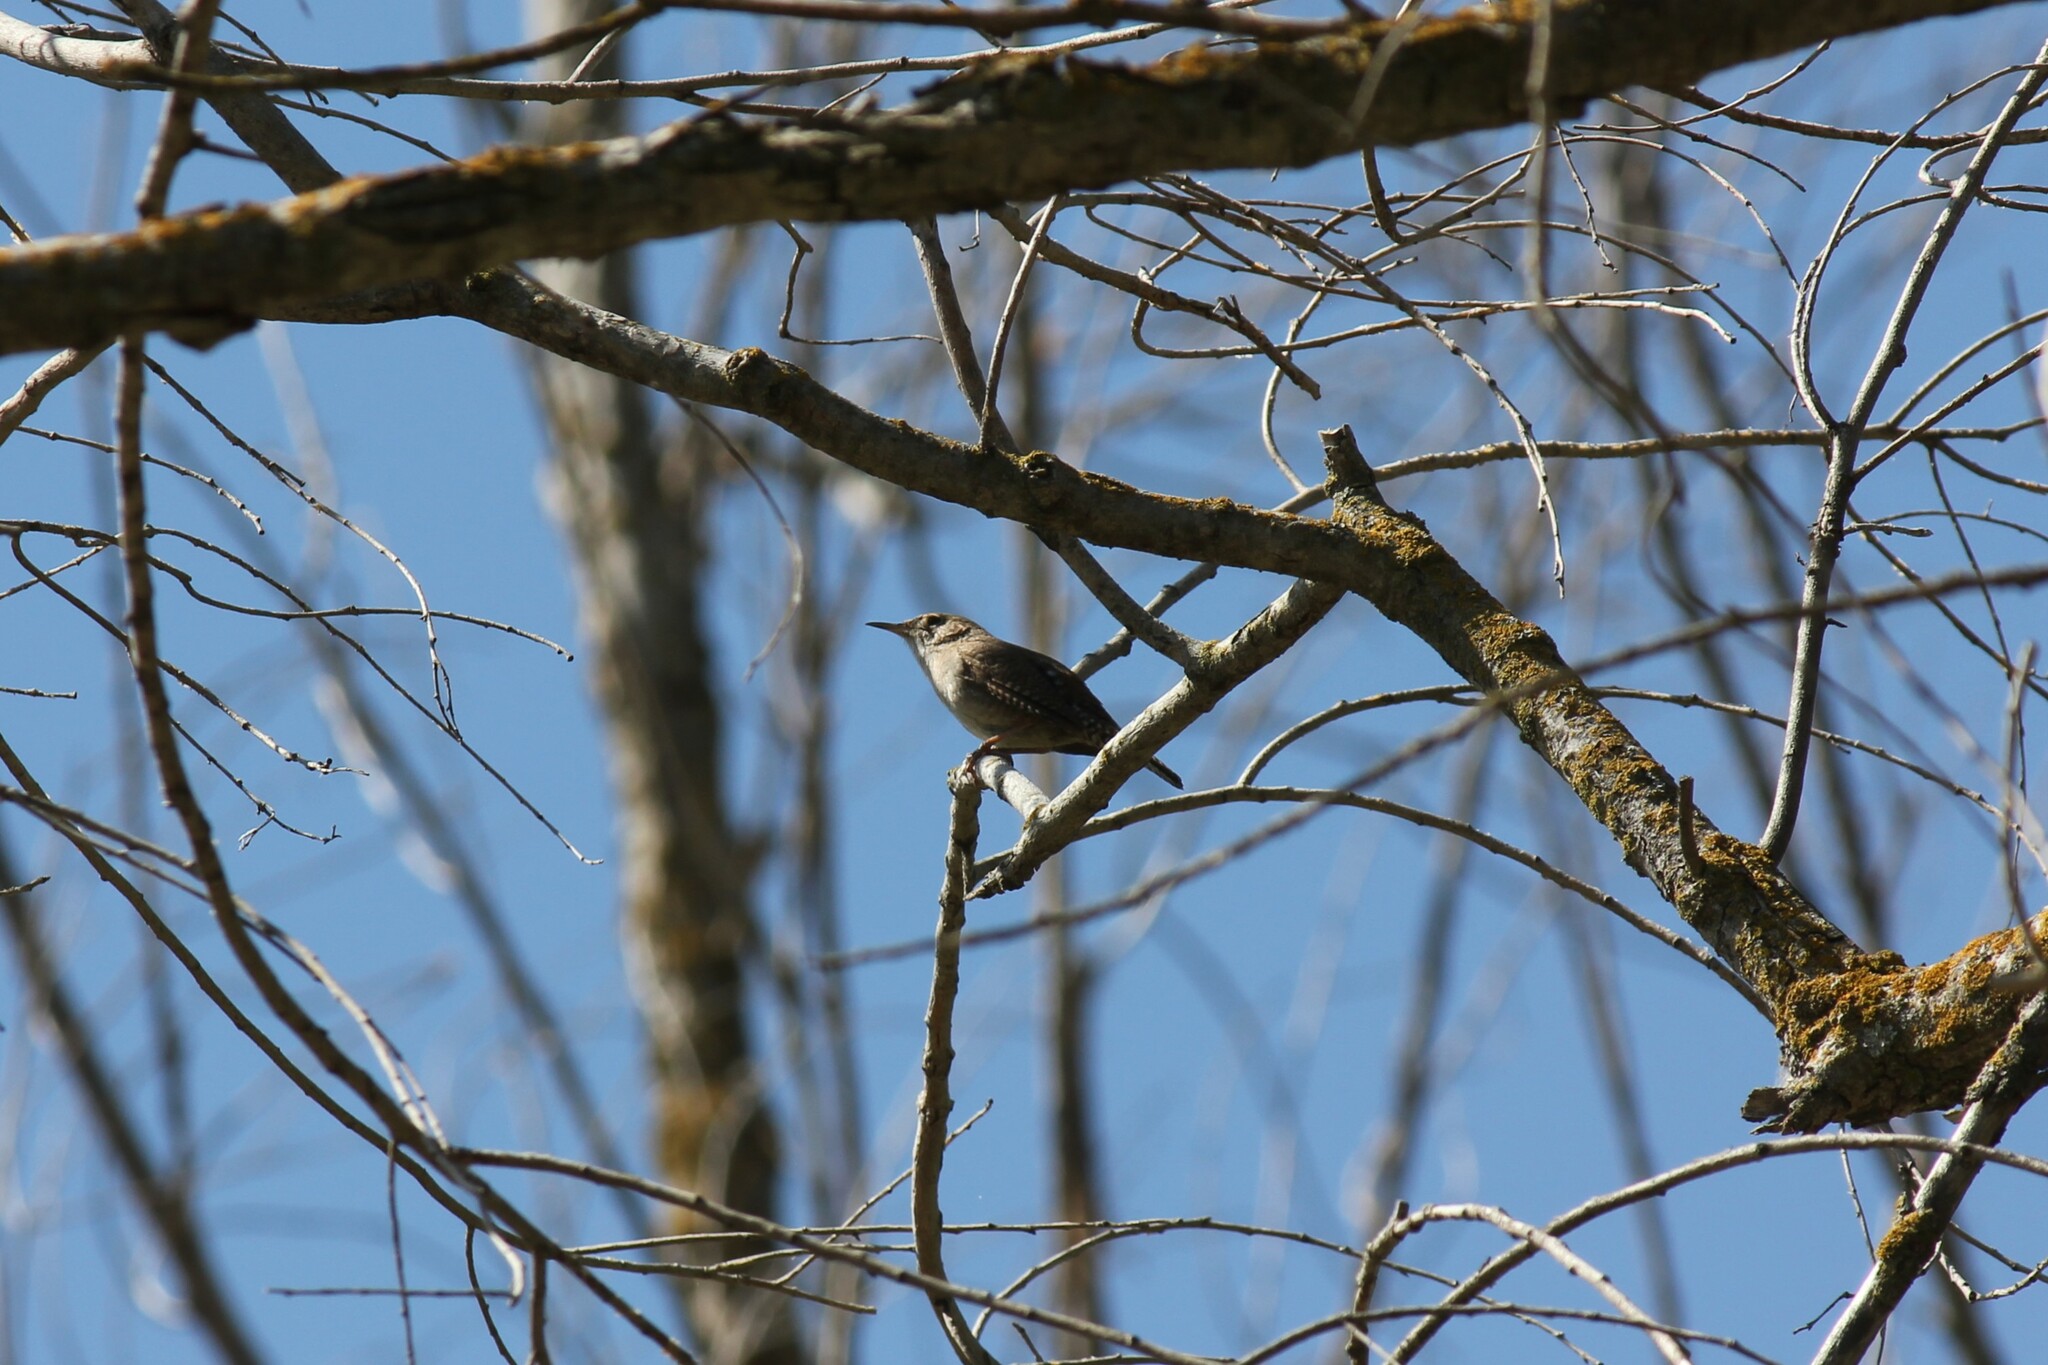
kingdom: Animalia
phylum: Chordata
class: Aves
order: Passeriformes
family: Troglodytidae
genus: Troglodytes
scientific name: Troglodytes aedon
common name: House wren
